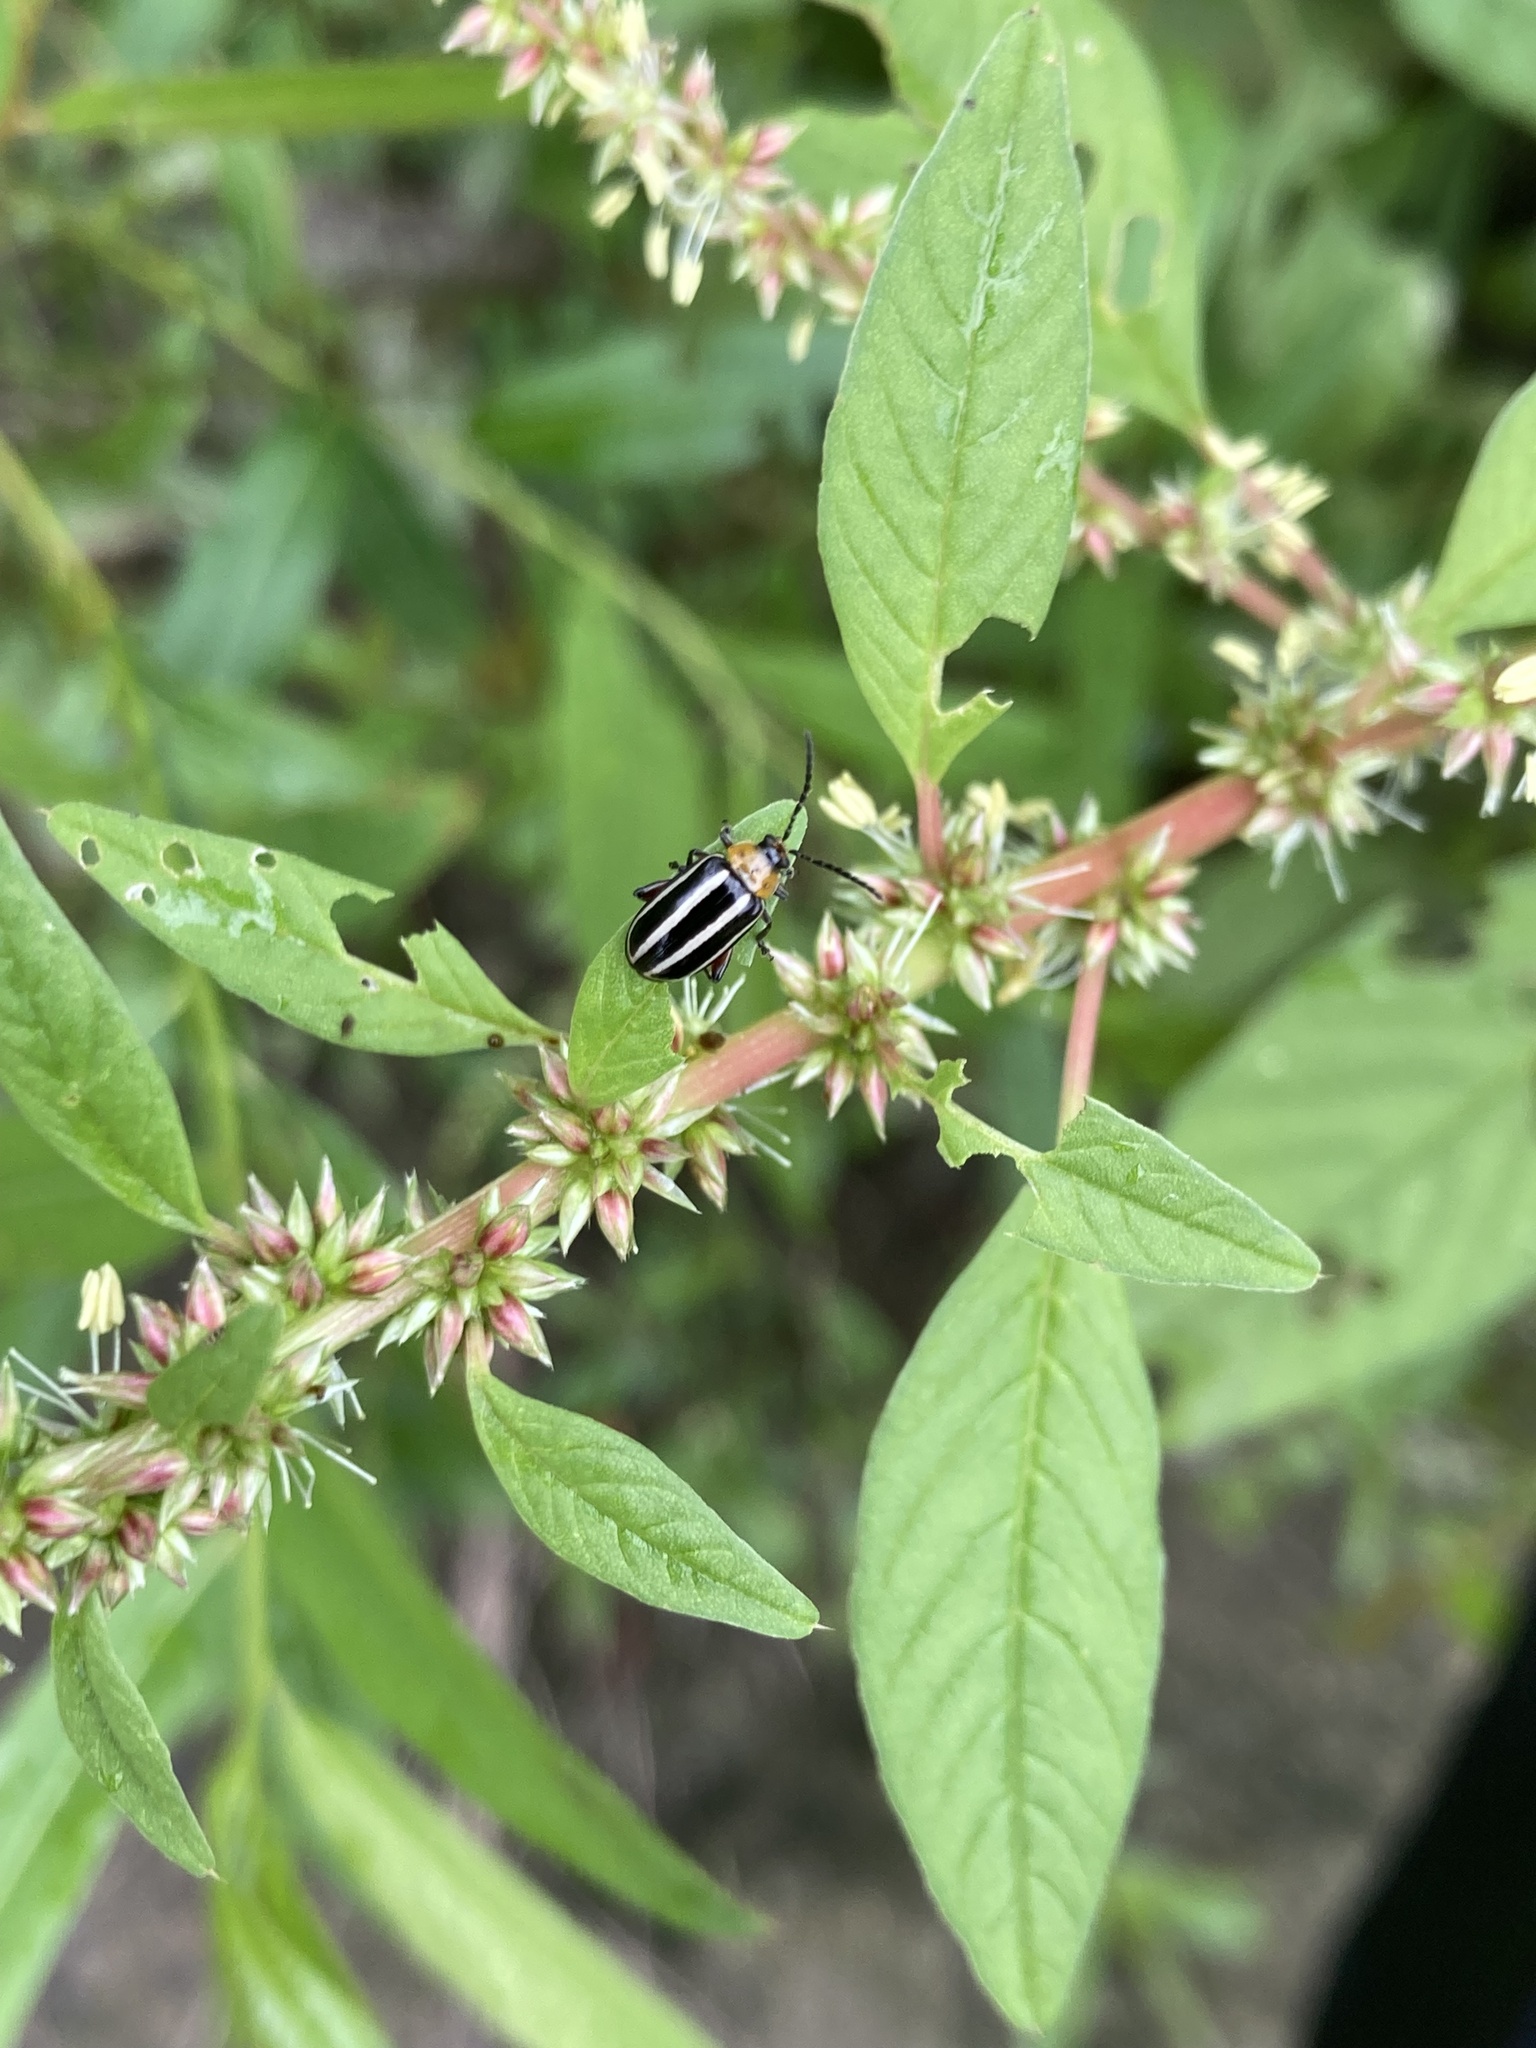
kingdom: Animalia
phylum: Arthropoda
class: Insecta
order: Coleoptera
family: Chrysomelidae
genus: Disonycha
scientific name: Disonycha glabrata
